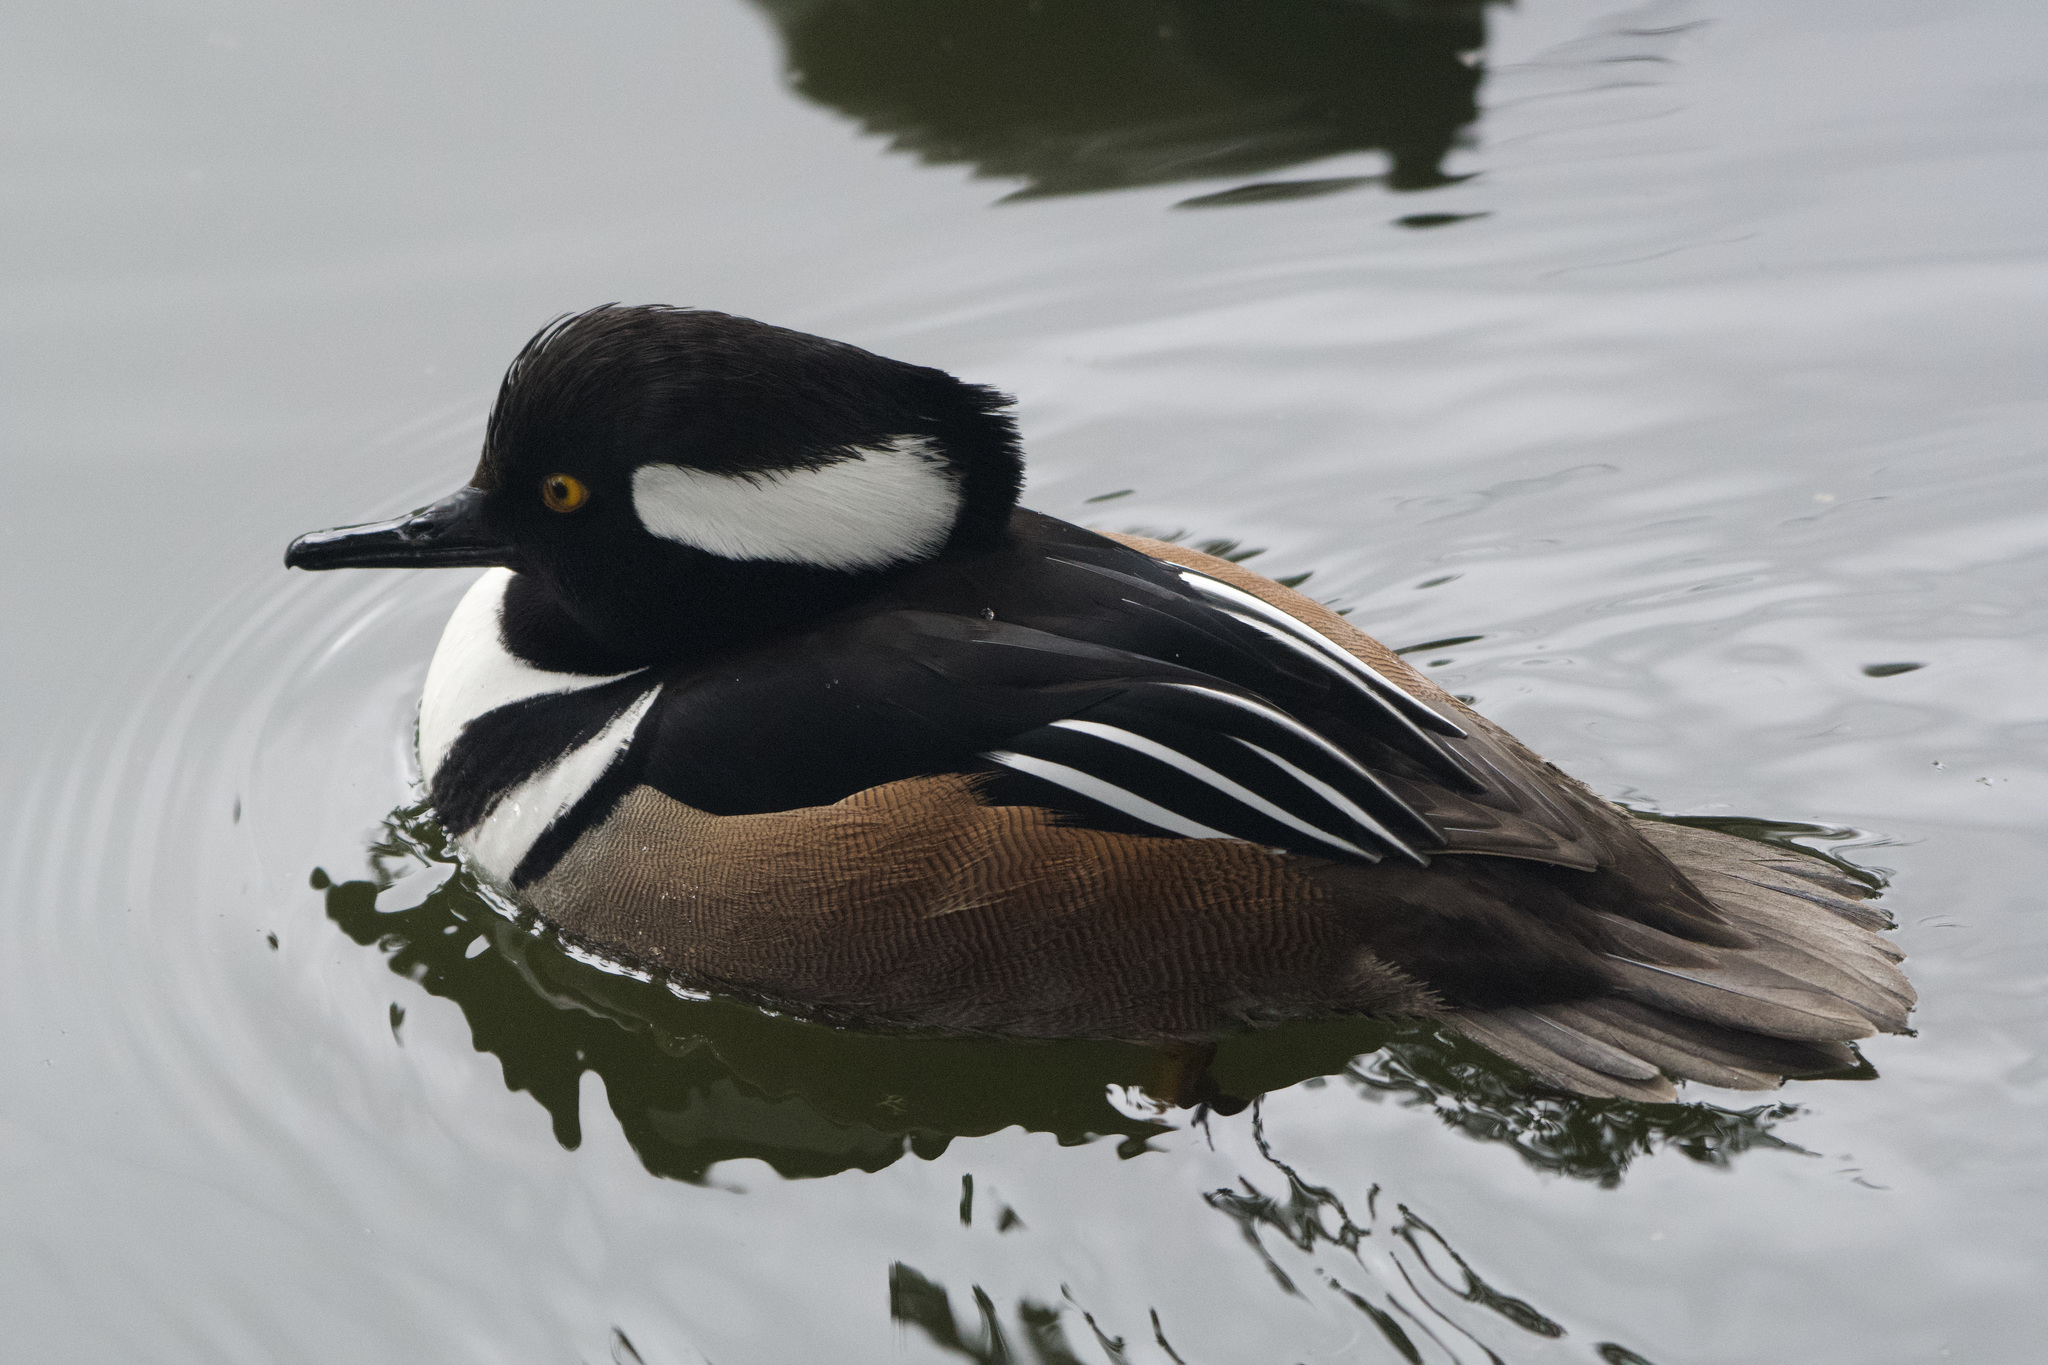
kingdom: Animalia
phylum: Chordata
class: Aves
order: Anseriformes
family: Anatidae
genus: Lophodytes
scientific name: Lophodytes cucullatus
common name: Hooded merganser
